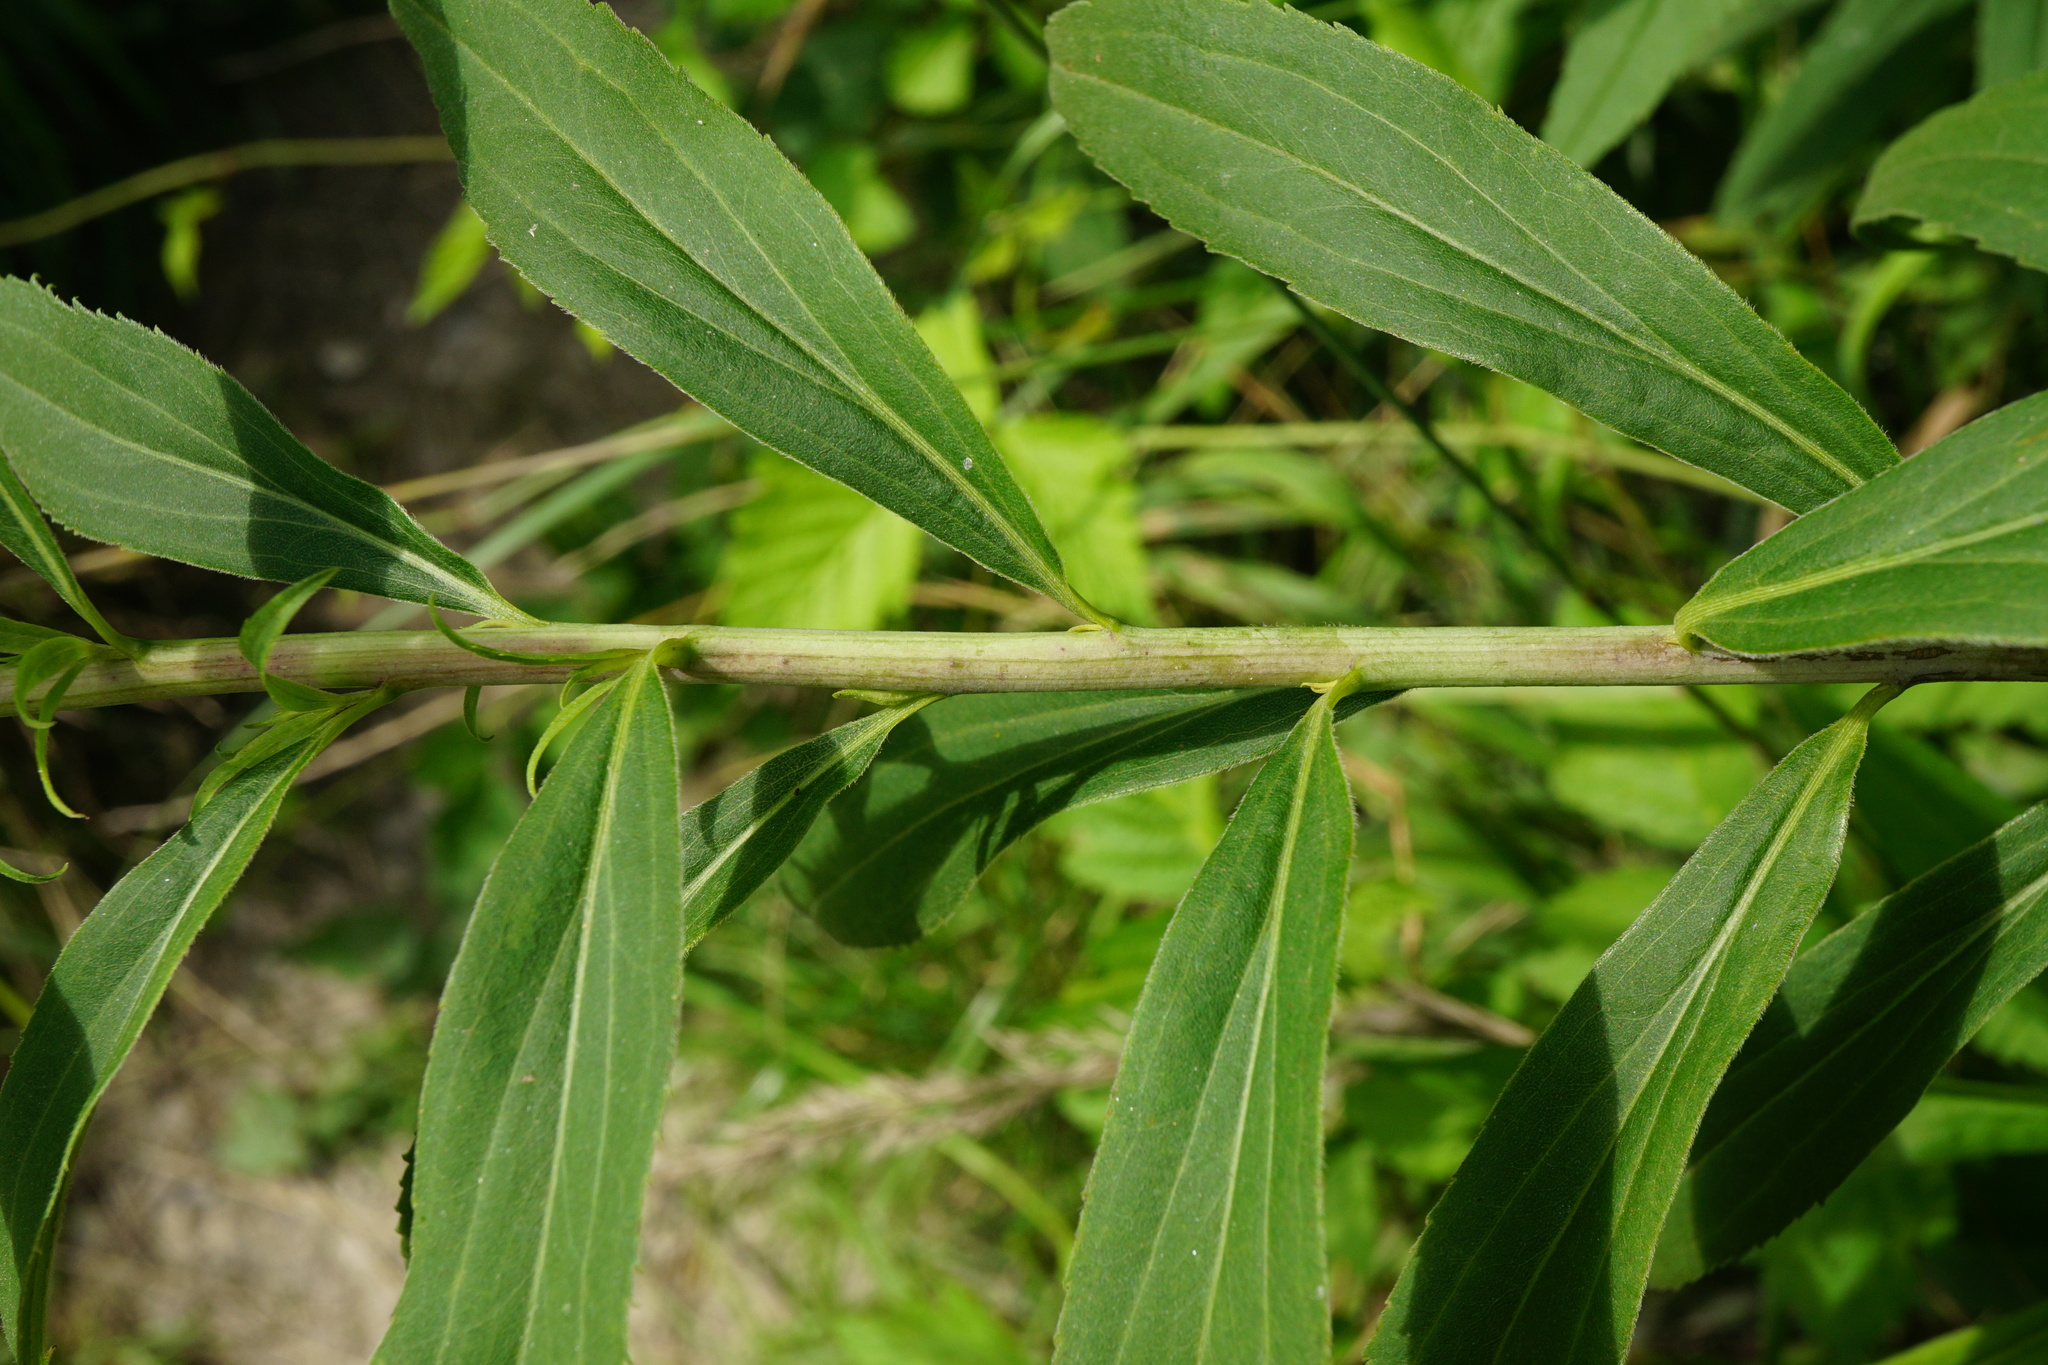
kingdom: Plantae
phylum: Tracheophyta
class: Magnoliopsida
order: Asterales
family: Asteraceae
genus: Solidago
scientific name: Solidago gigantea
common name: Giant goldenrod
